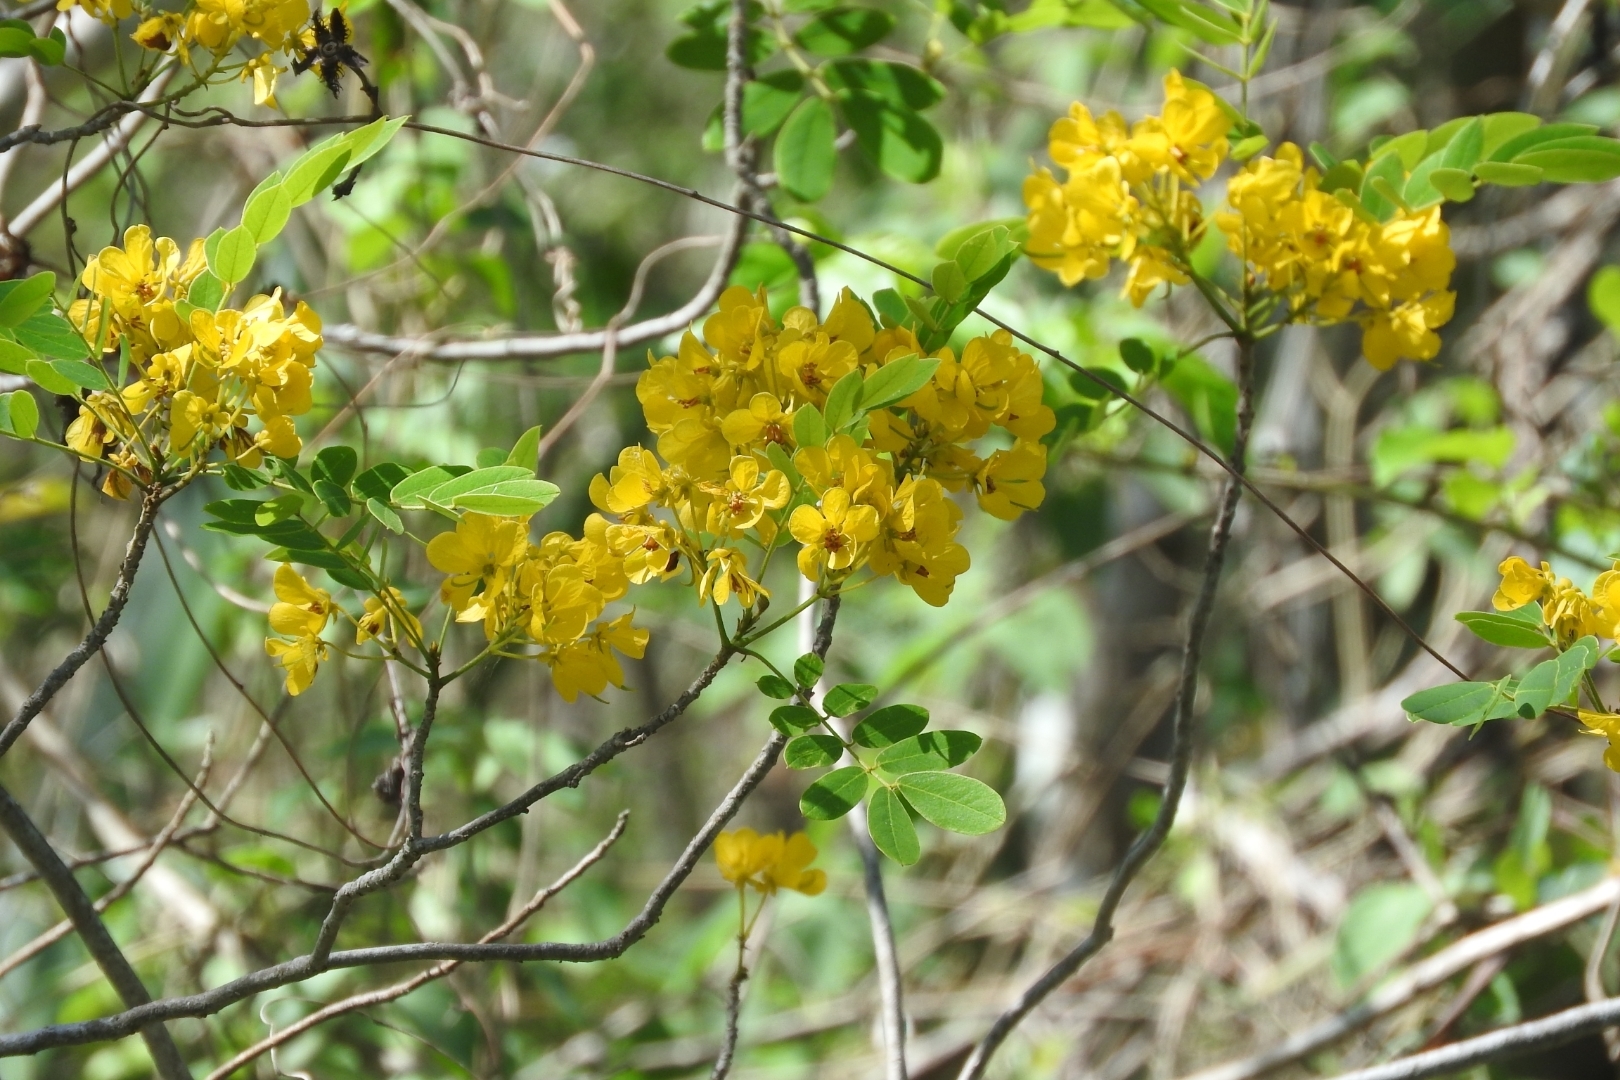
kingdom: Plantae
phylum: Tracheophyta
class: Magnoliopsida
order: Fabales
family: Fabaceae
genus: Senna
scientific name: Senna pallida
